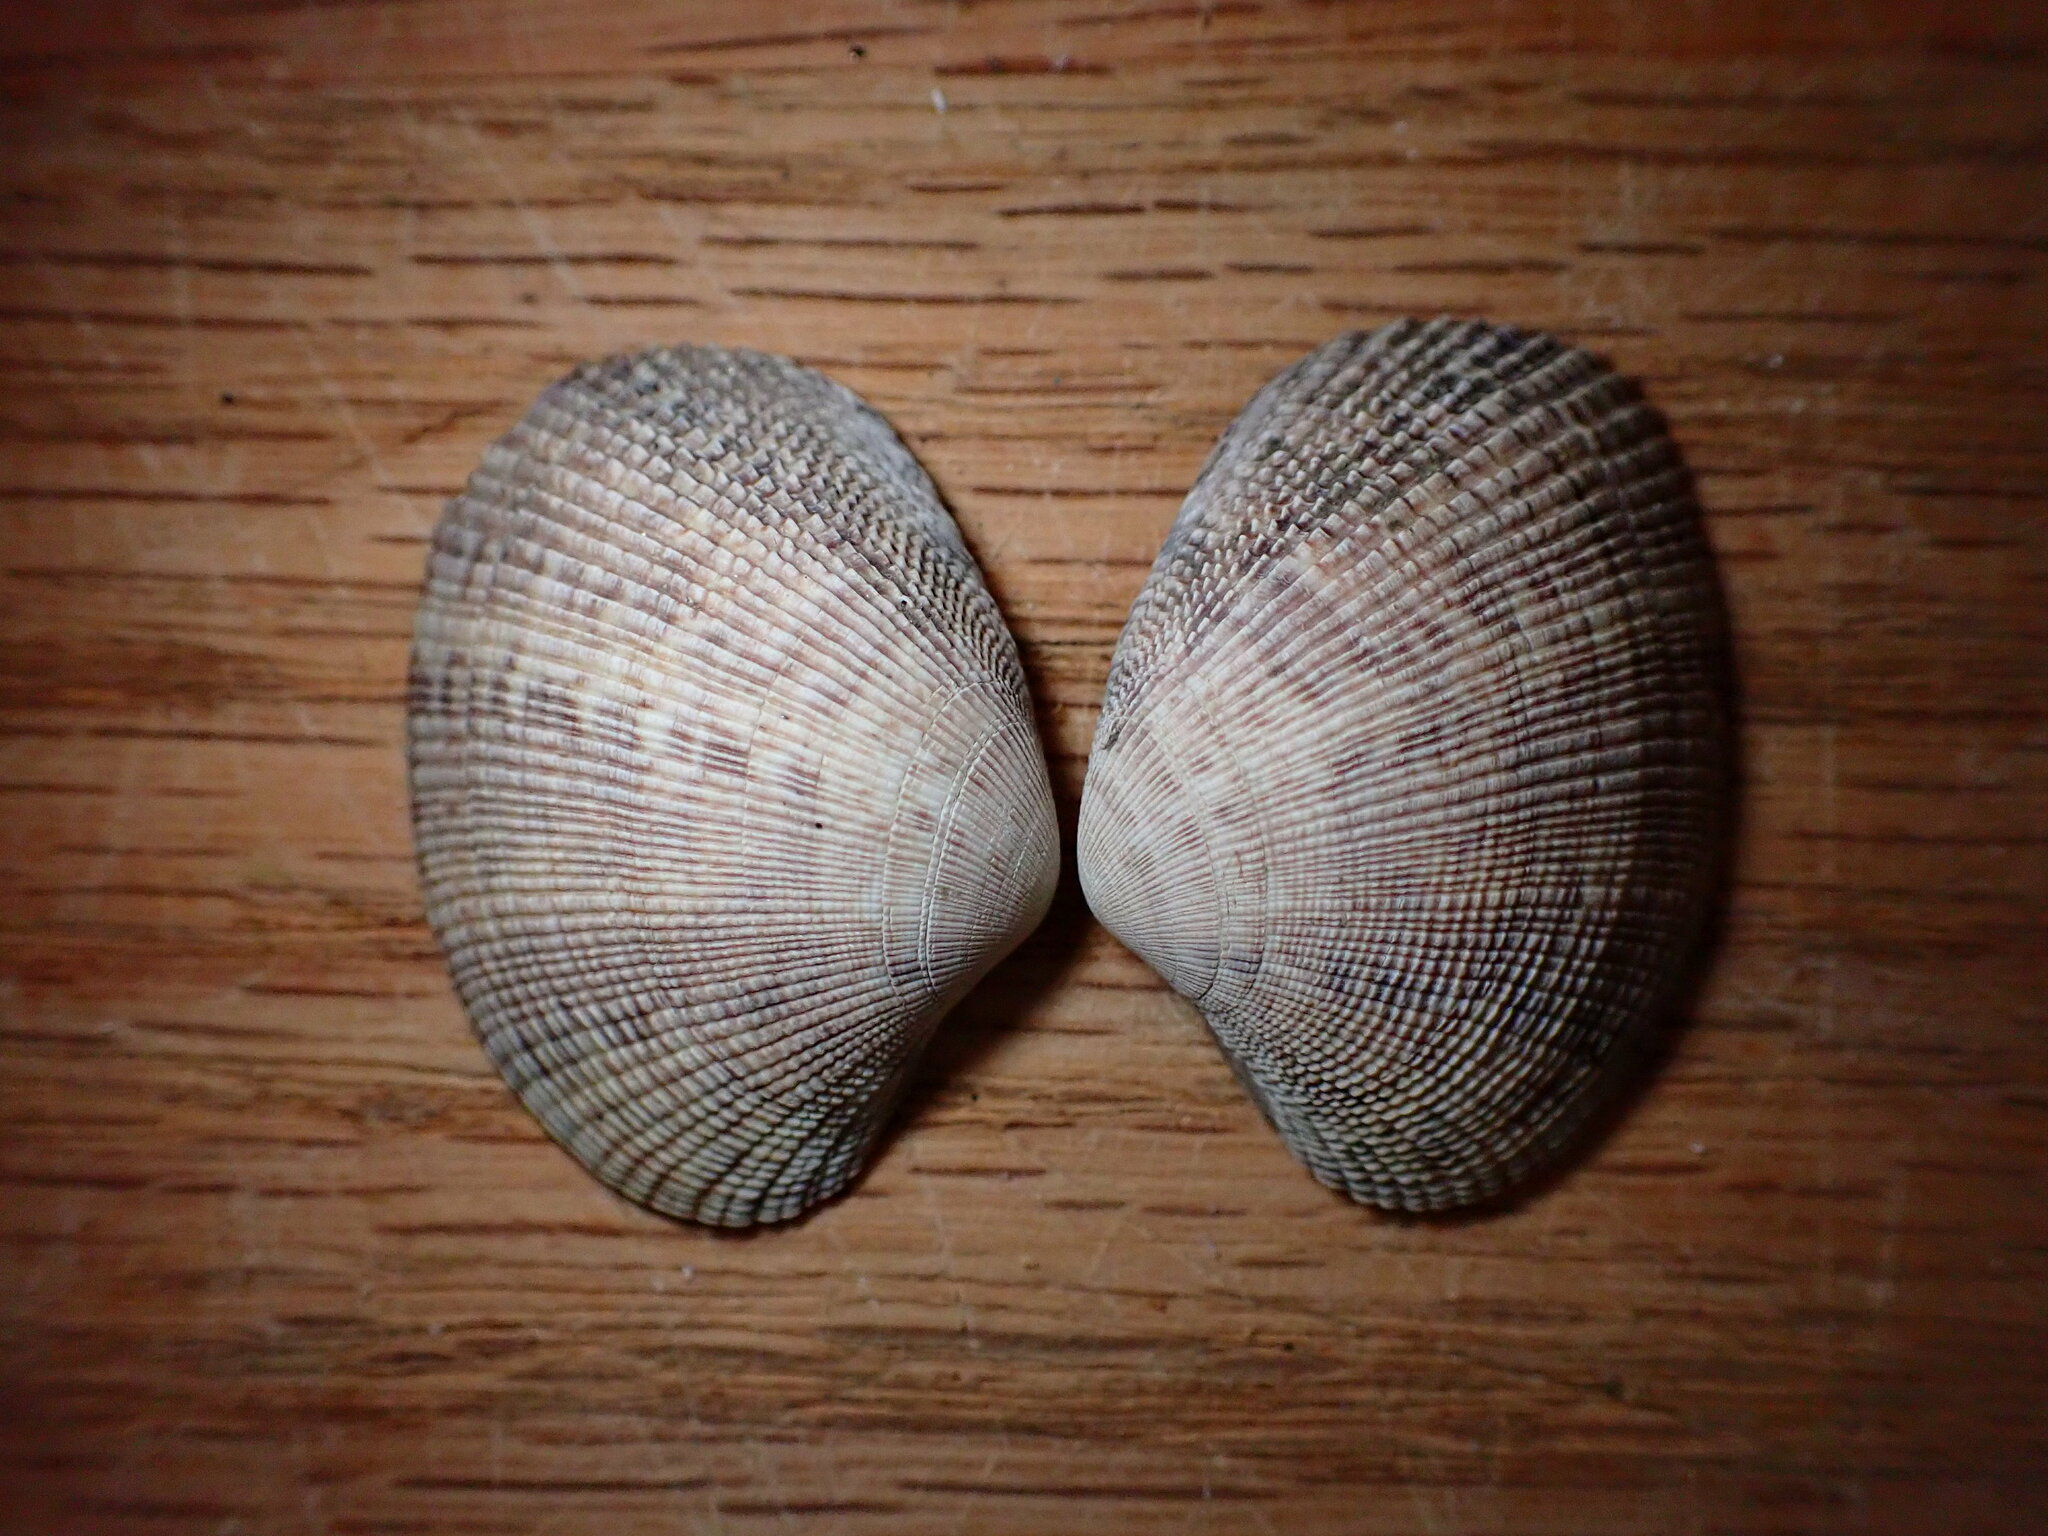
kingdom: Animalia
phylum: Mollusca
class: Bivalvia
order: Venerida
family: Veneridae
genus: Ruditapes
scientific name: Ruditapes philippinarum
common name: Manila clam
